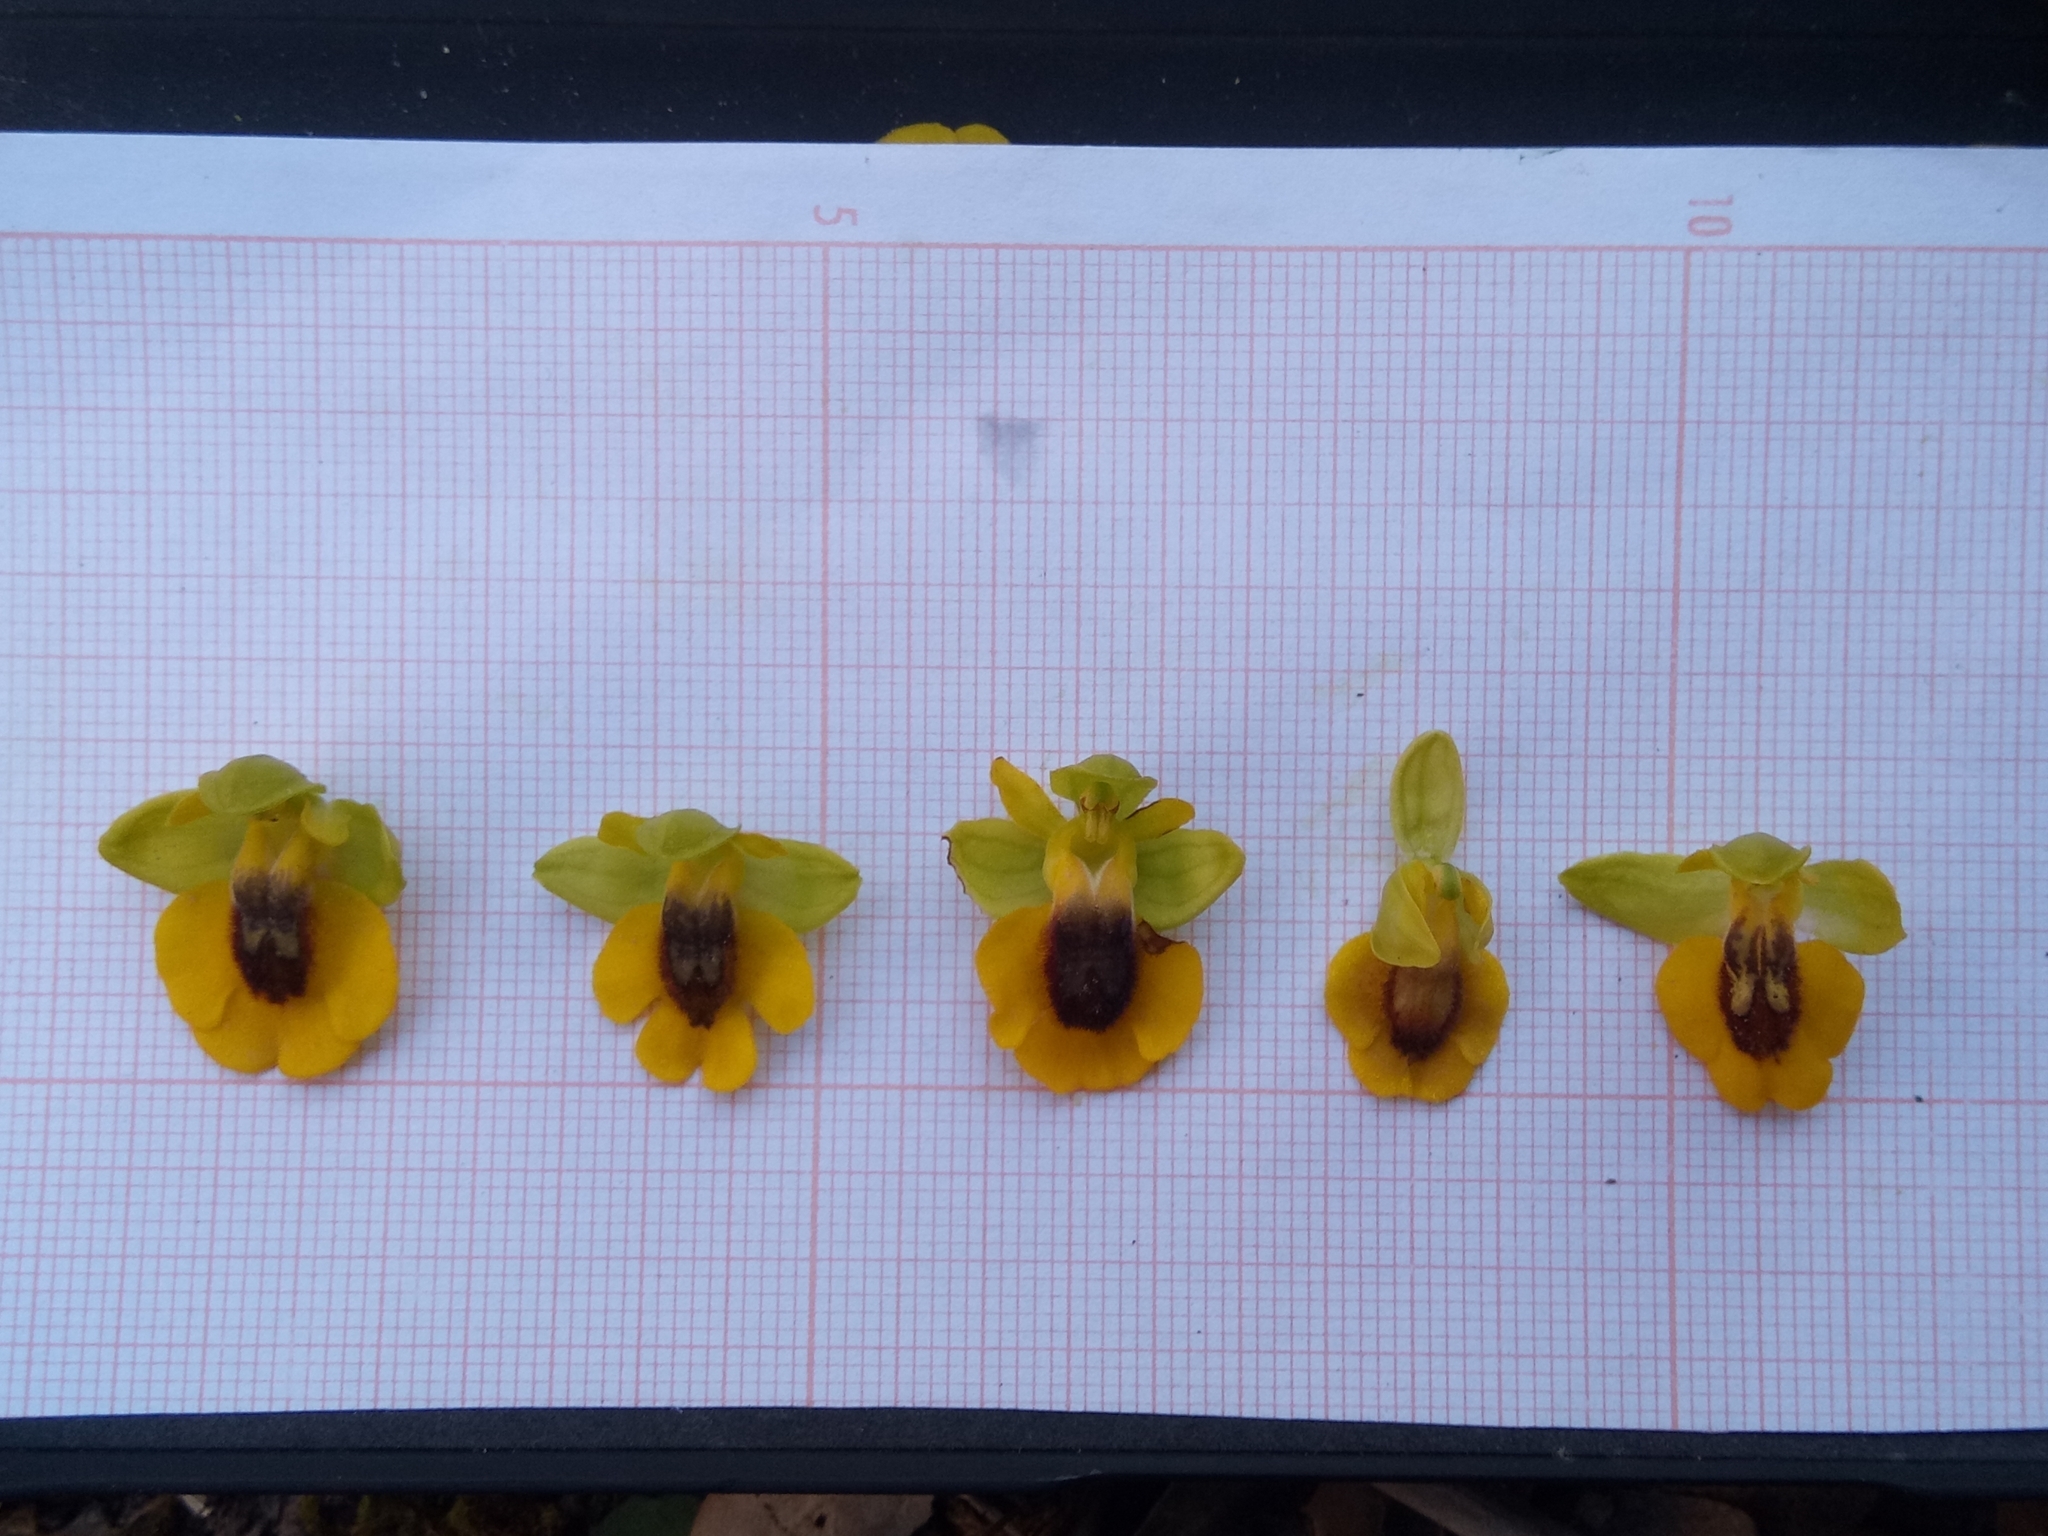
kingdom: Plantae
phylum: Tracheophyta
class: Liliopsida
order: Asparagales
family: Orchidaceae
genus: Ophrys
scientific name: Ophrys lutea
